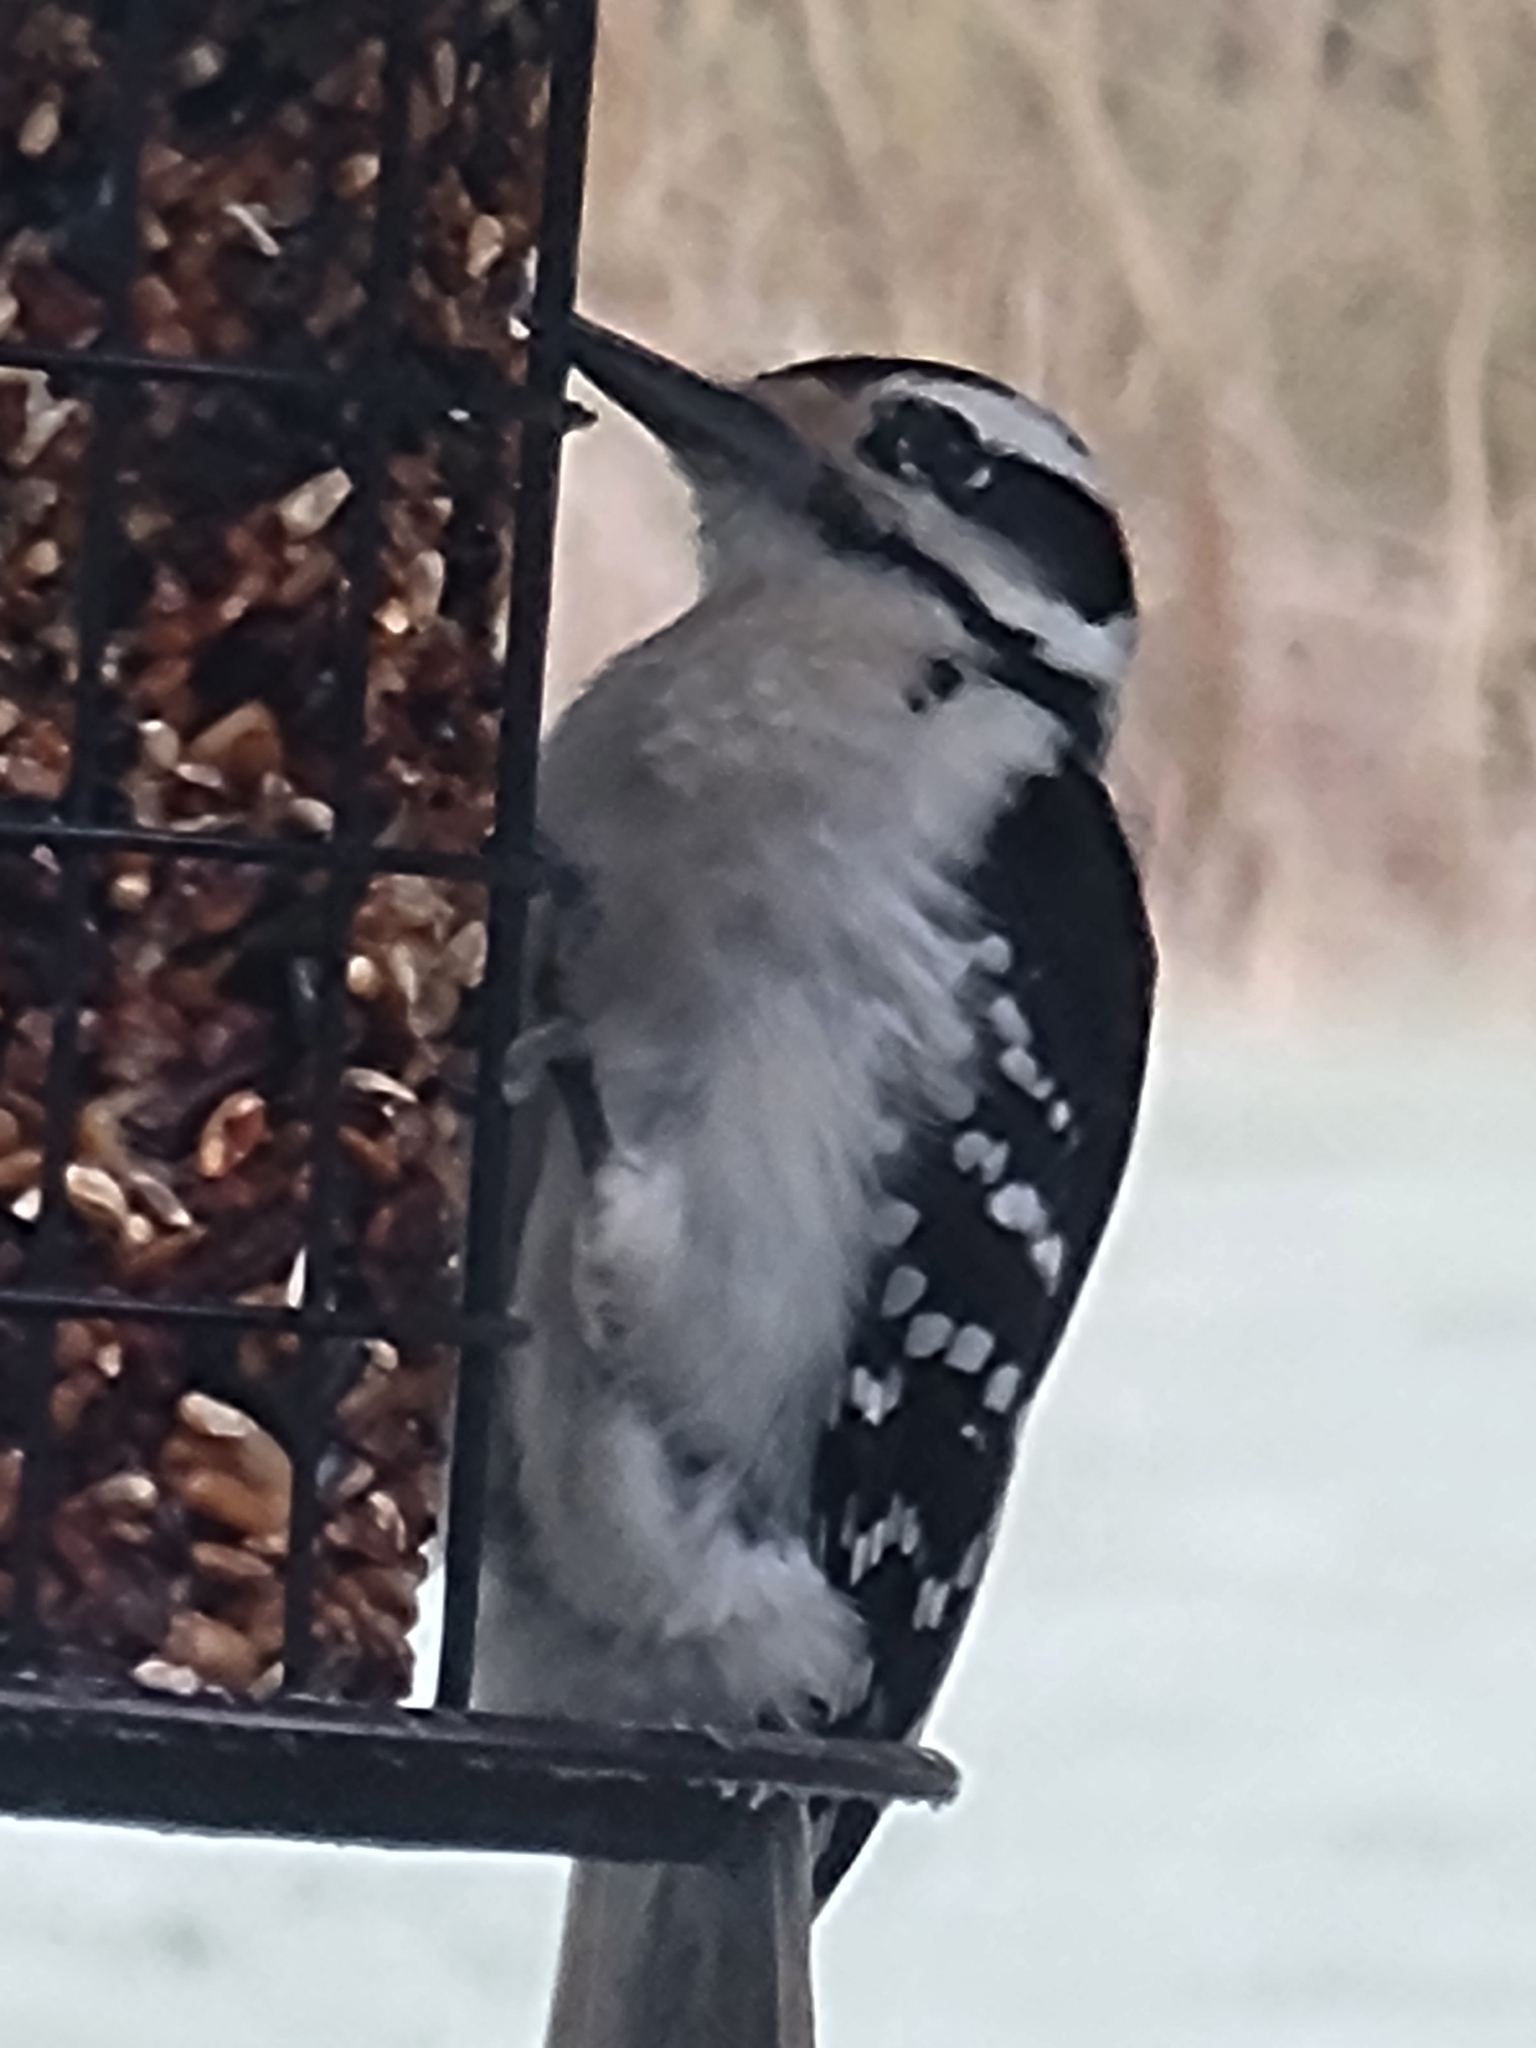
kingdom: Animalia
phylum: Chordata
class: Aves
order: Piciformes
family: Picidae
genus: Leuconotopicus
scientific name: Leuconotopicus villosus
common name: Hairy woodpecker
